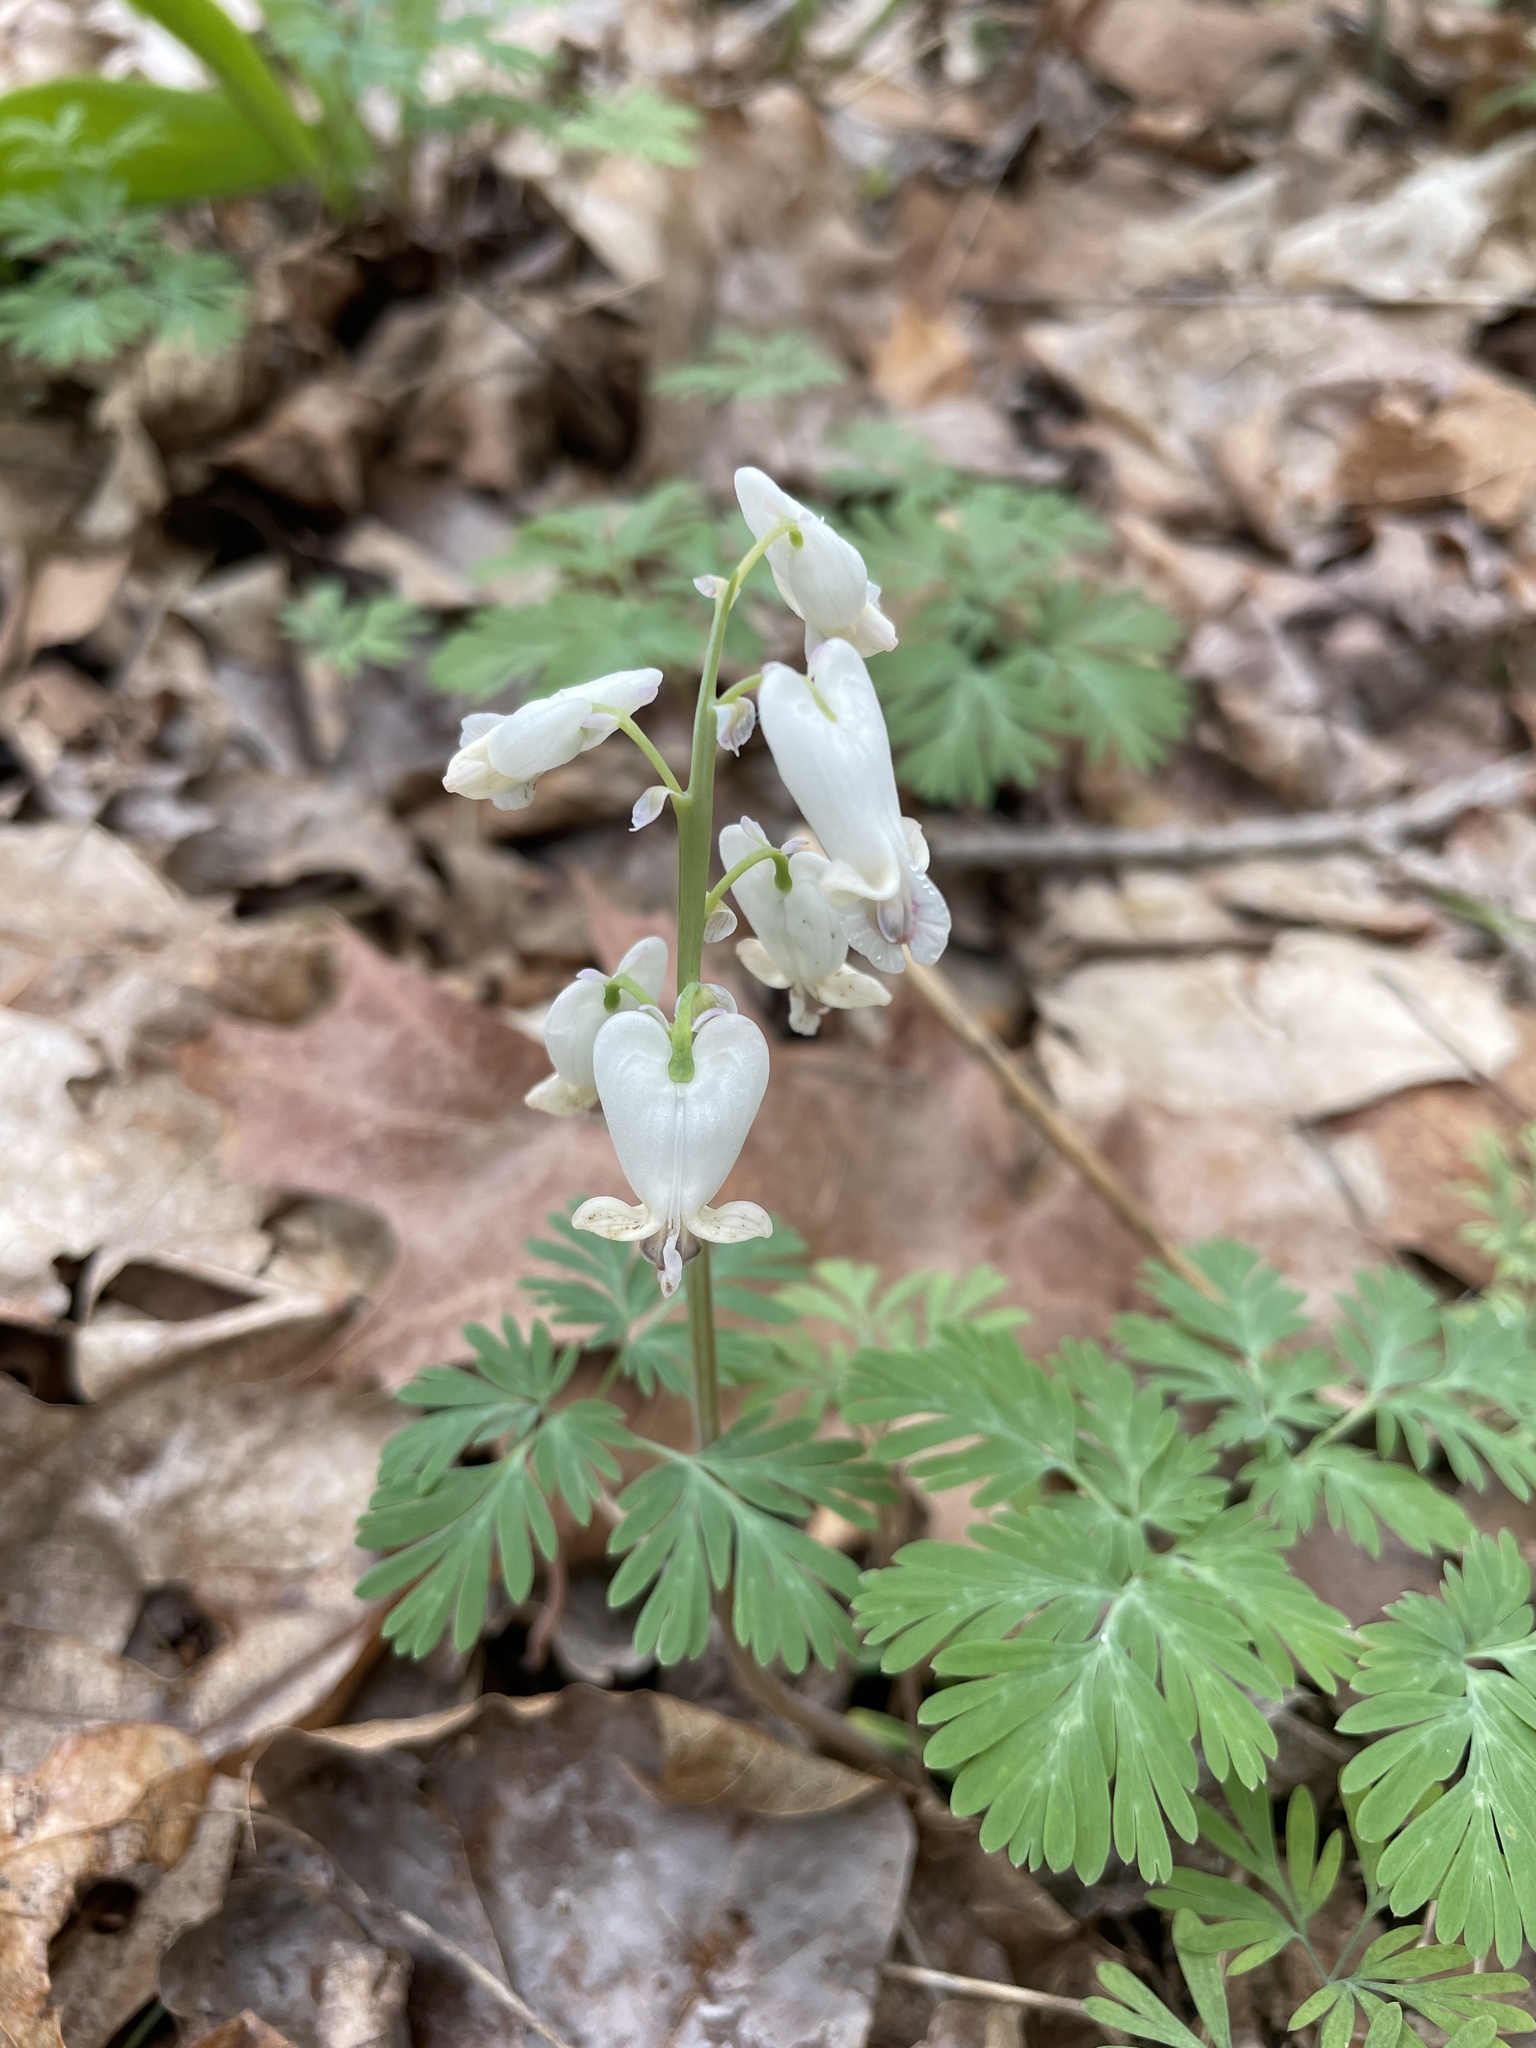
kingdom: Plantae
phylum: Tracheophyta
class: Magnoliopsida
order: Ranunculales
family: Papaveraceae
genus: Dicentra
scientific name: Dicentra canadensis
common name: Squirrel-corn
